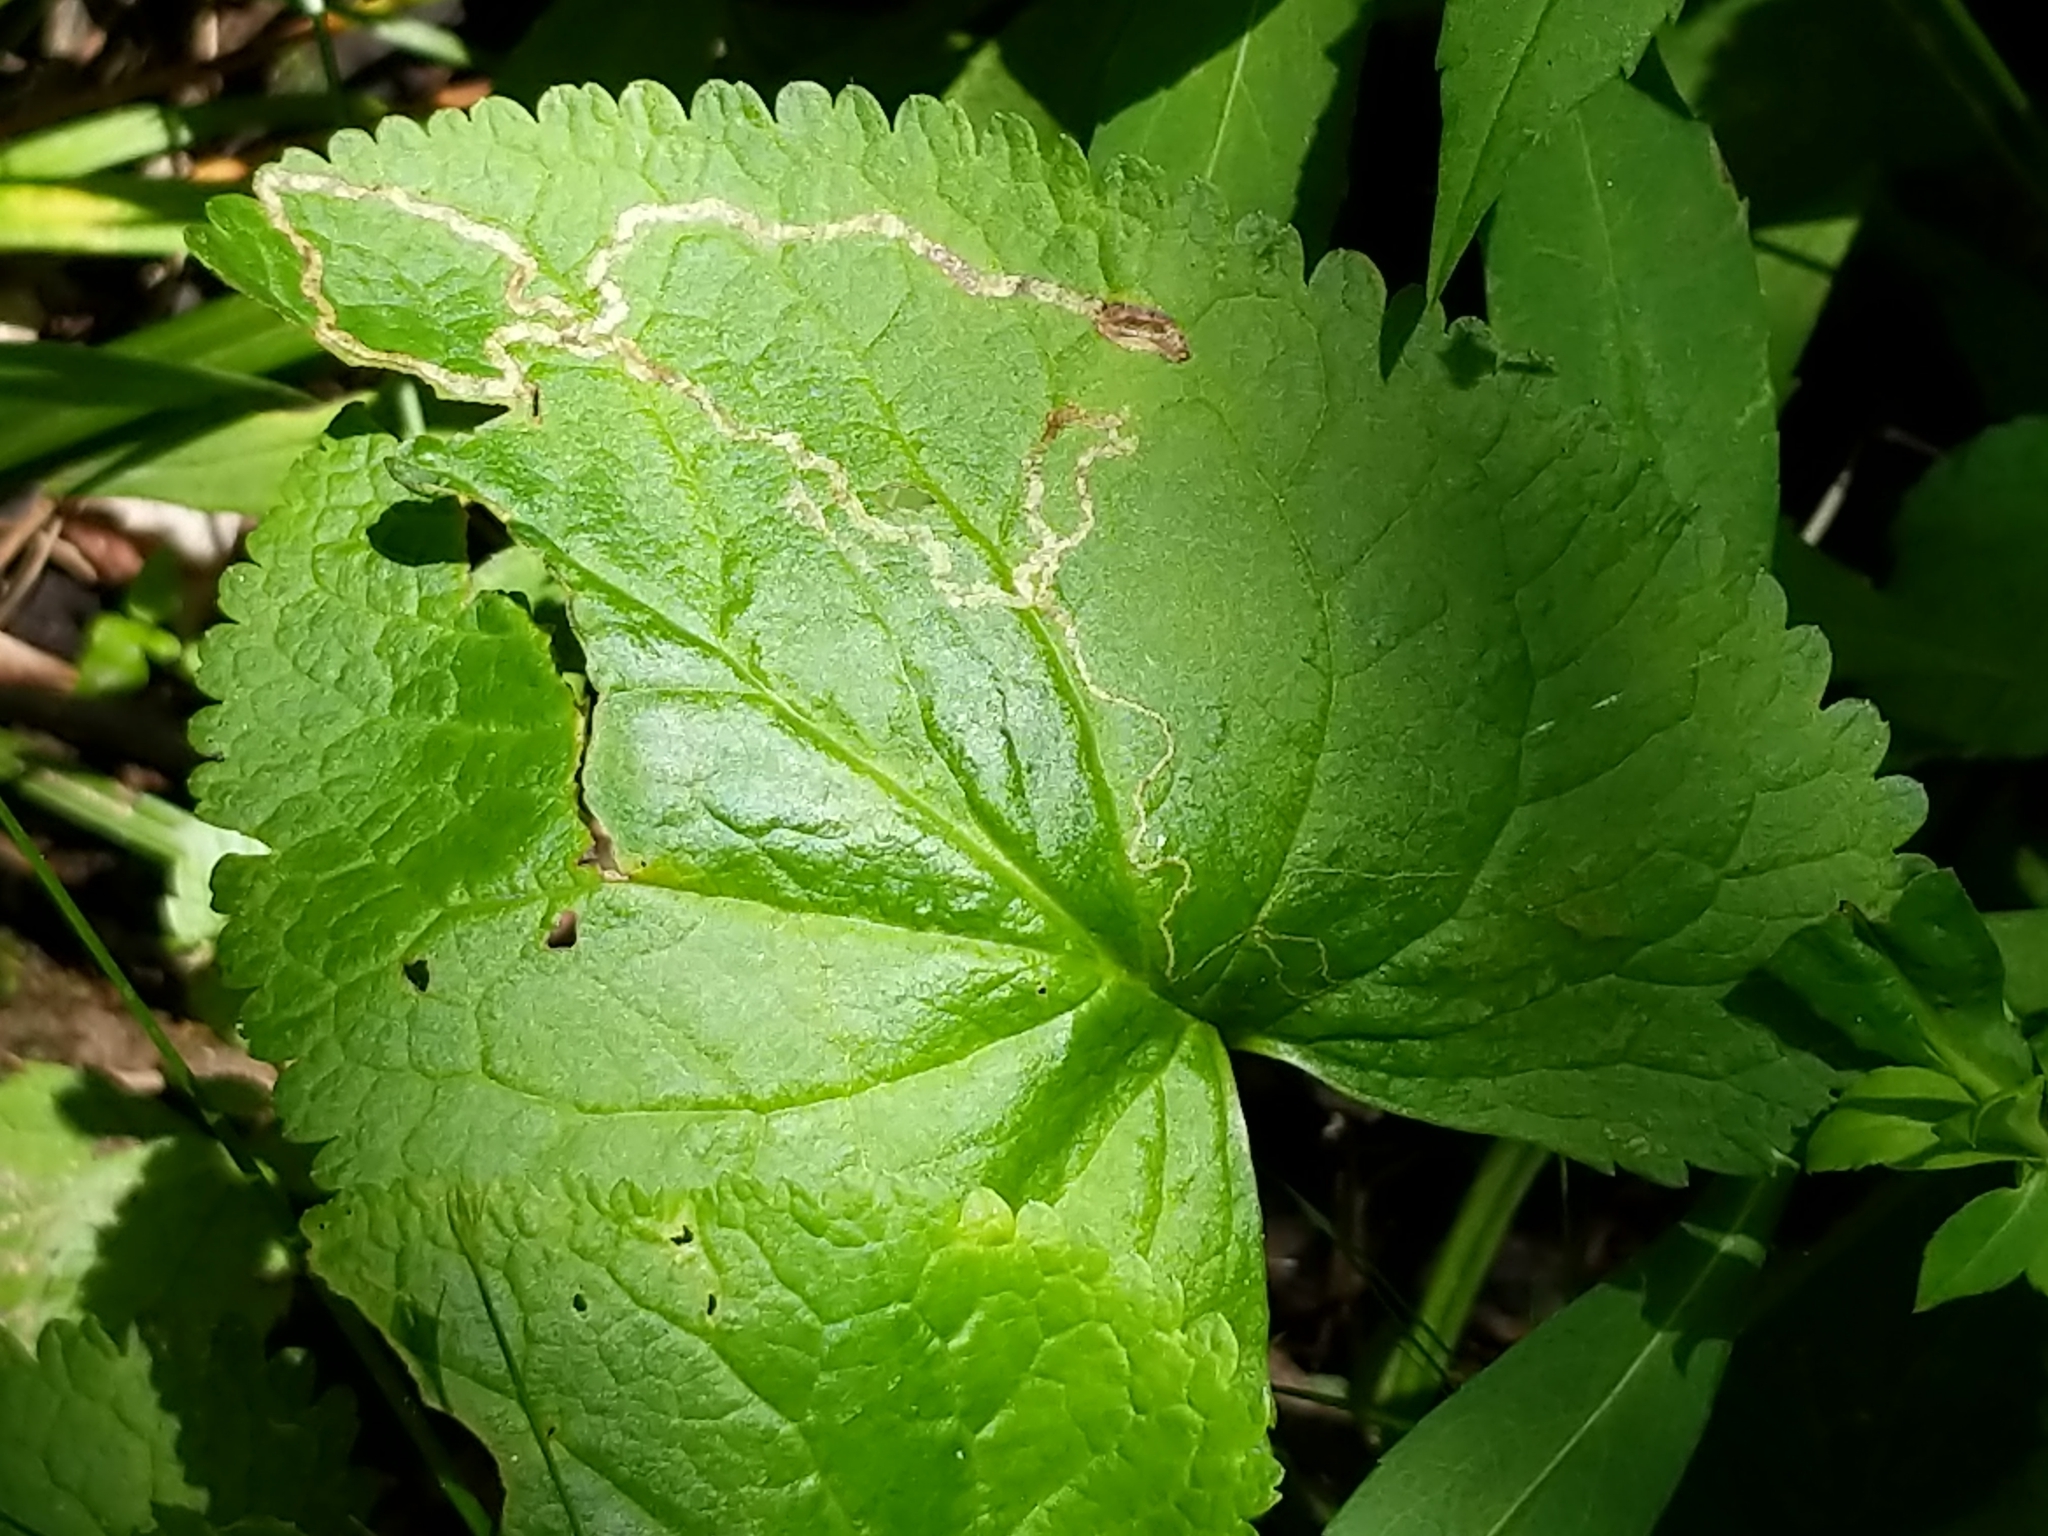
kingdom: Animalia
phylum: Arthropoda
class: Insecta
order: Lepidoptera
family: Gracillariidae
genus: Phyllocnistis
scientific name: Phyllocnistis insignis
